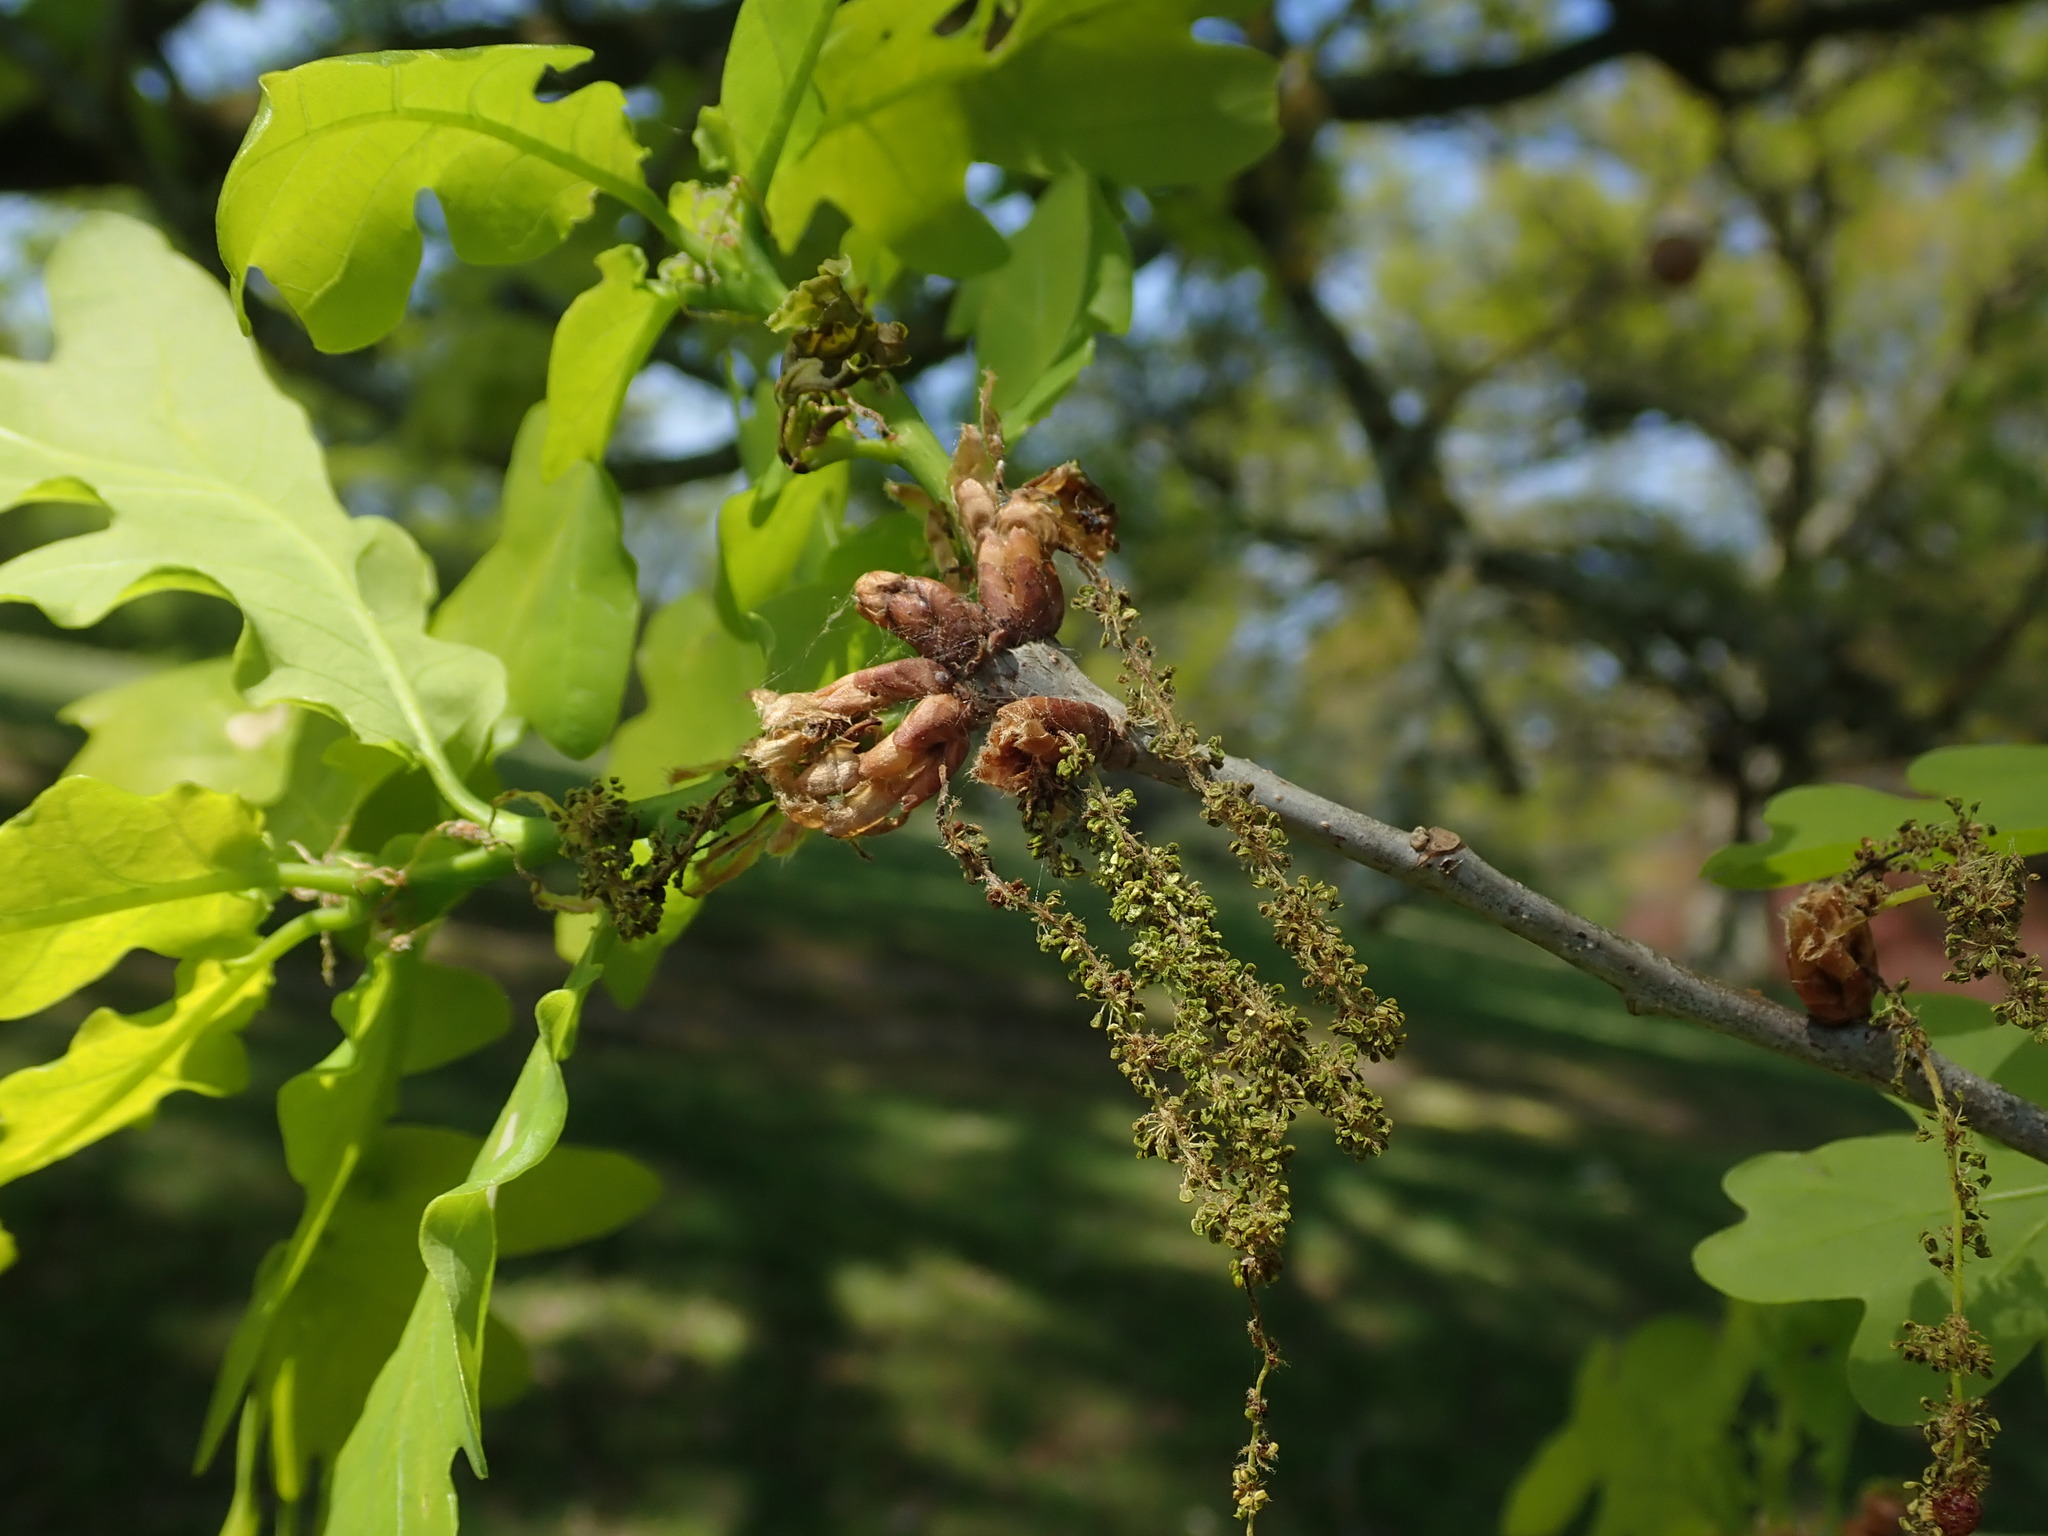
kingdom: Plantae
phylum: Tracheophyta
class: Magnoliopsida
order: Fagales
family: Fagaceae
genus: Quercus
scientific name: Quercus robur
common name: Pedunculate oak
